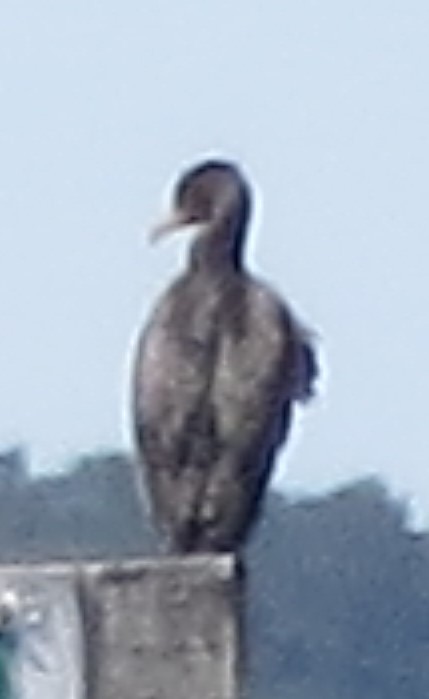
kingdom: Animalia
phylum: Chordata
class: Aves
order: Suliformes
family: Phalacrocoracidae
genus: Phalacrocorax
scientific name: Phalacrocorax auritus
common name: Double-crested cormorant
